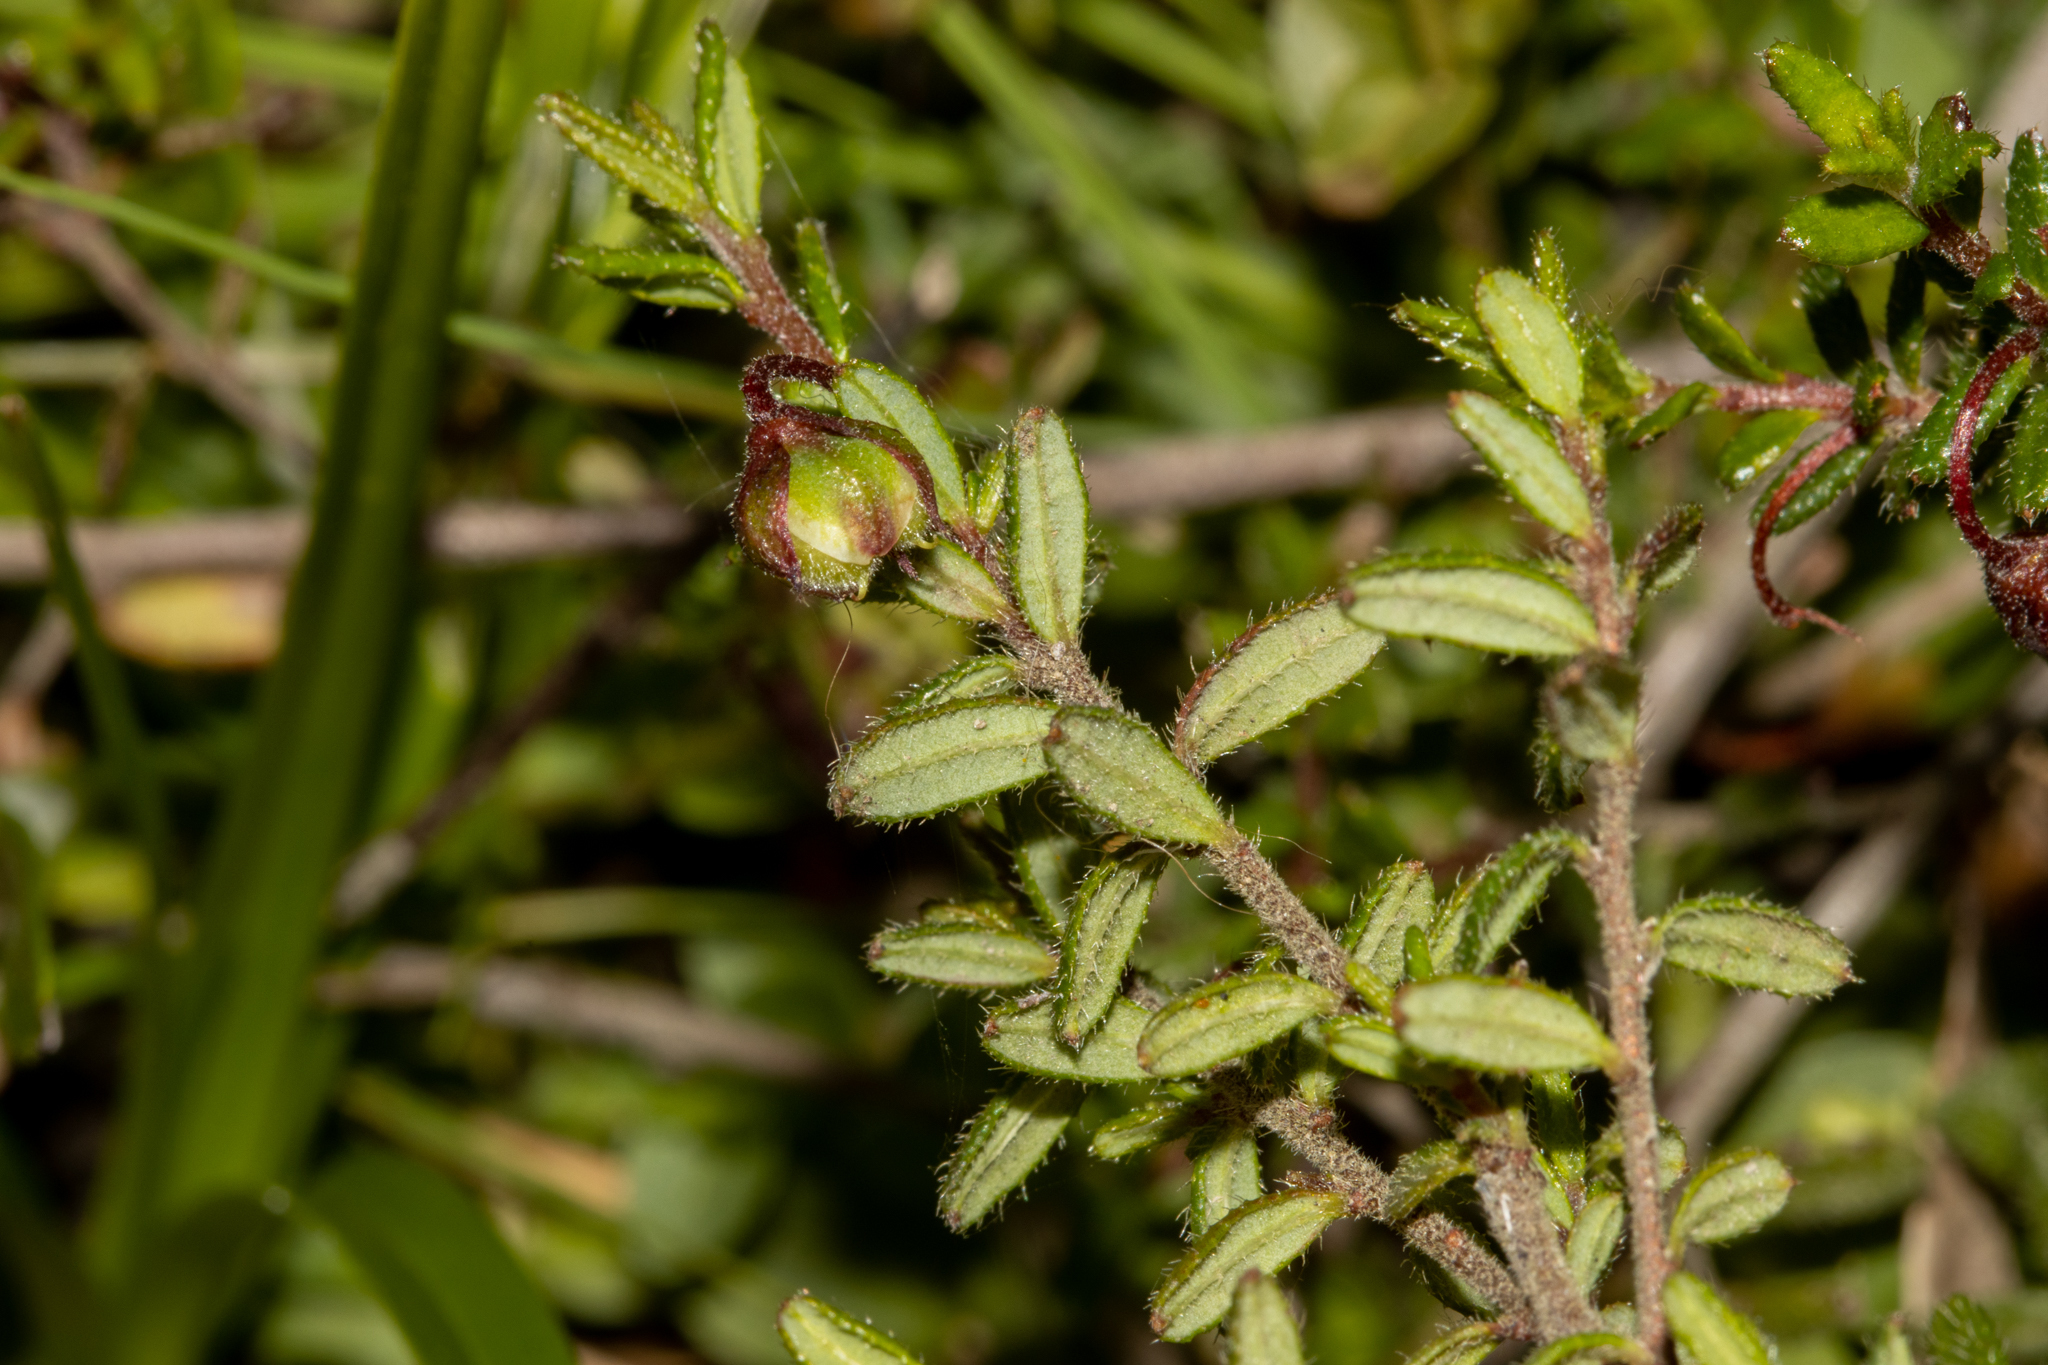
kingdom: Plantae
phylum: Tracheophyta
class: Magnoliopsida
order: Dilleniales
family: Dilleniaceae
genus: Hibbertia
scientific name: Hibbertia empetrifolia
